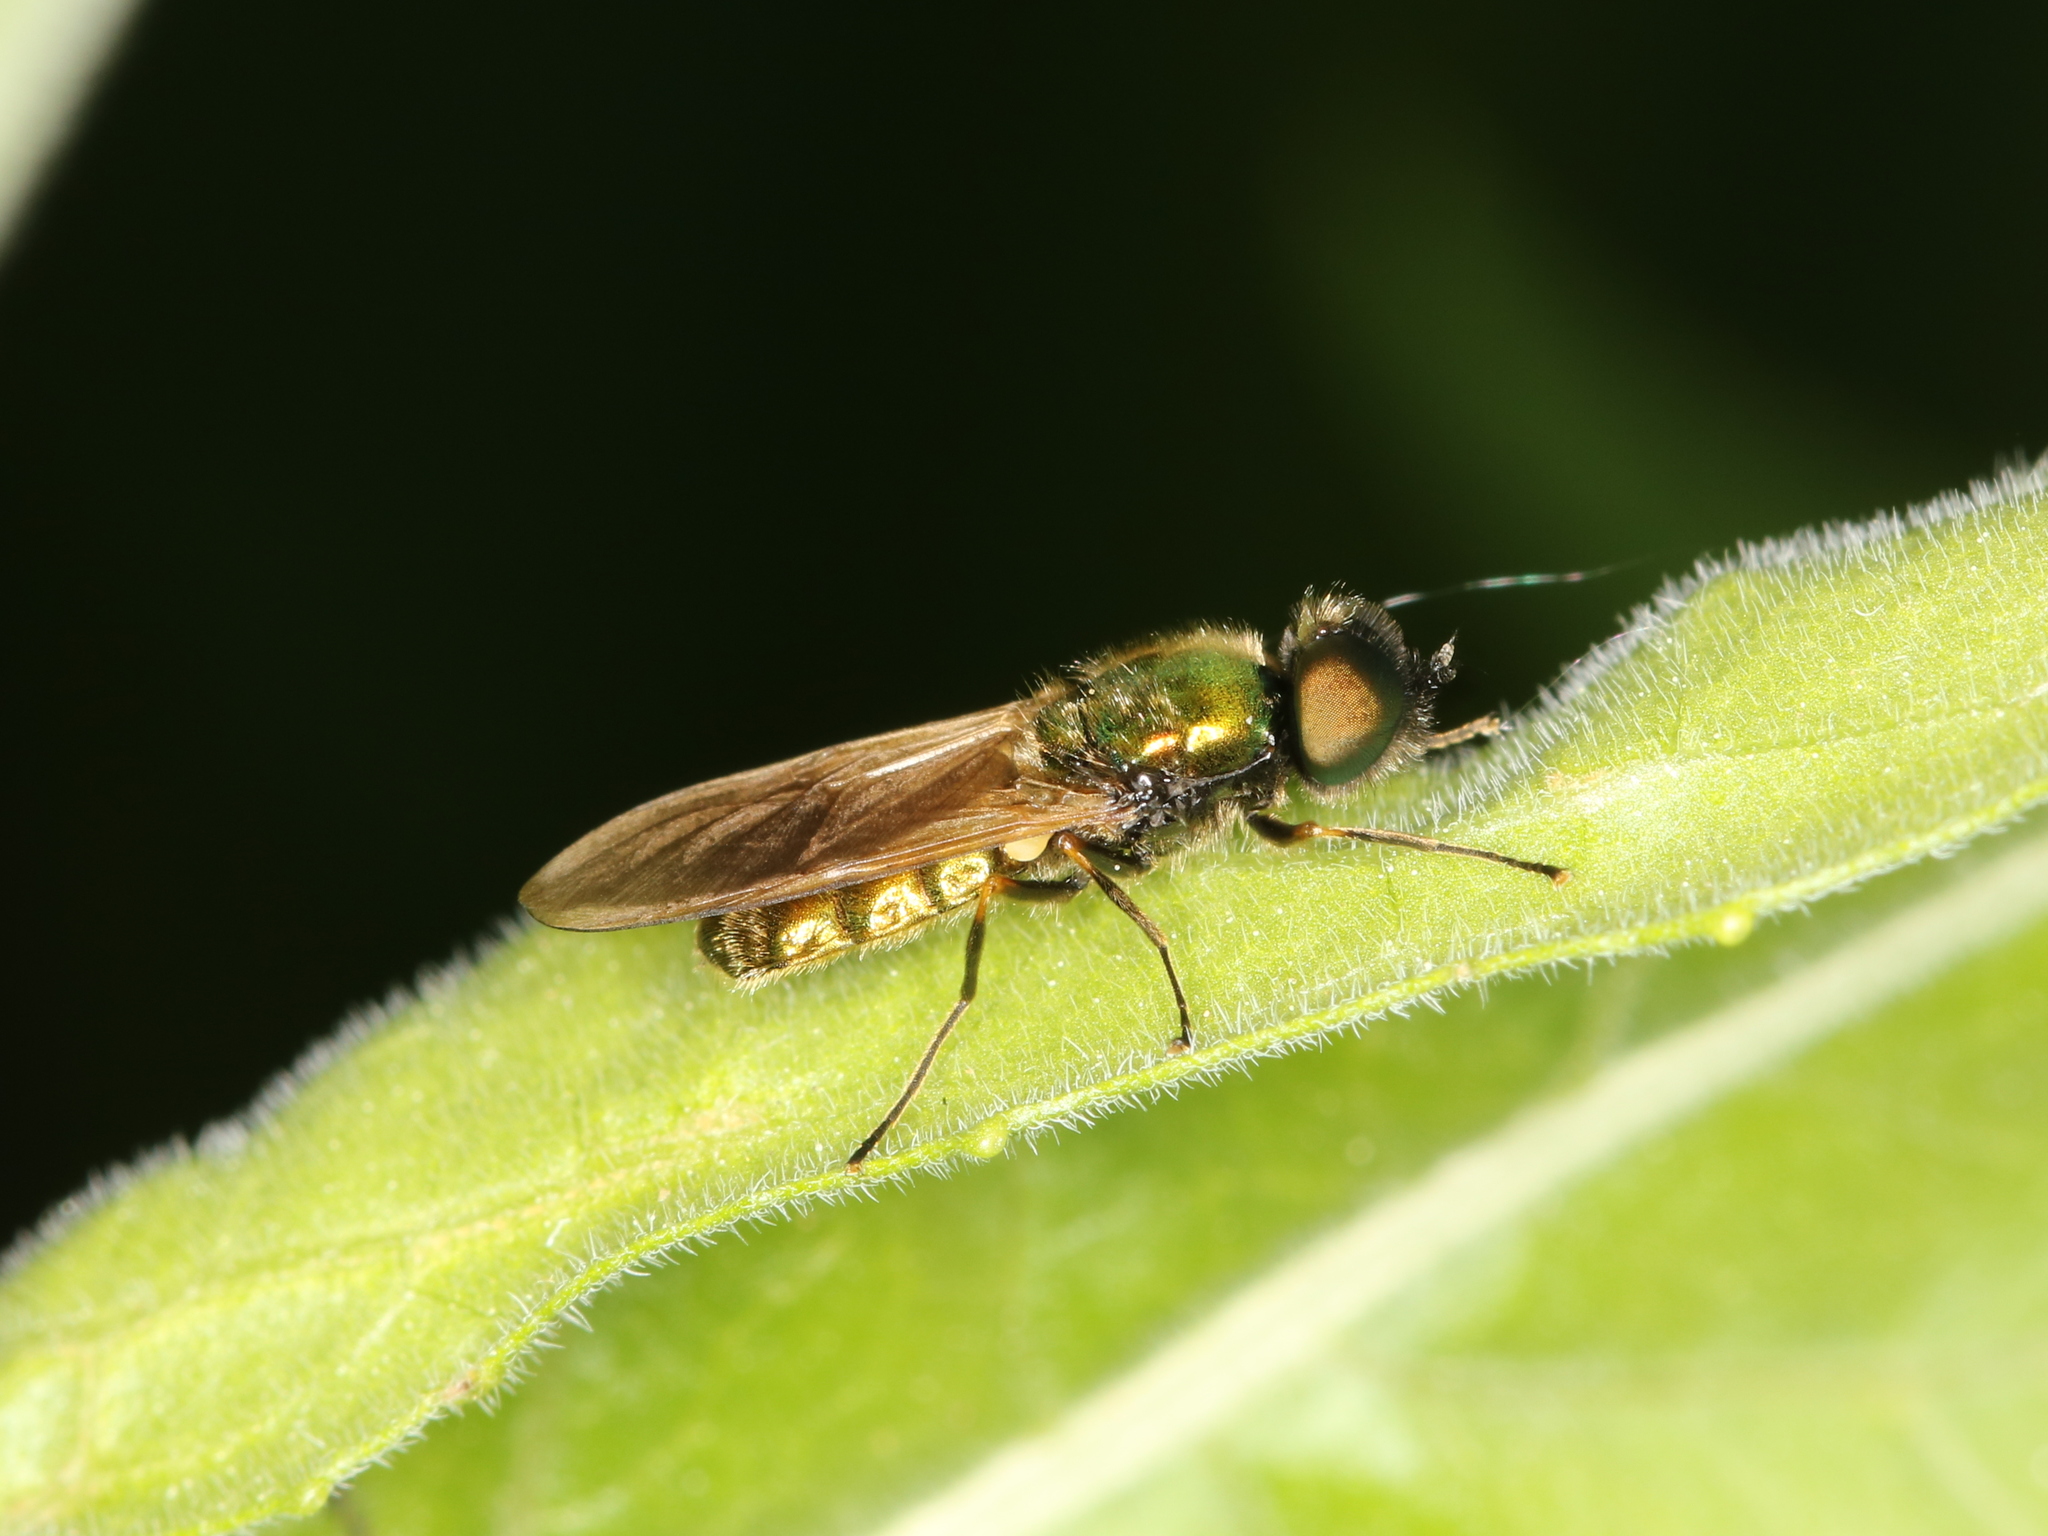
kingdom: Animalia
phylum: Arthropoda
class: Insecta
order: Diptera
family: Stratiomyidae
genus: Chloromyia
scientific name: Chloromyia formosa
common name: Soldier fly
